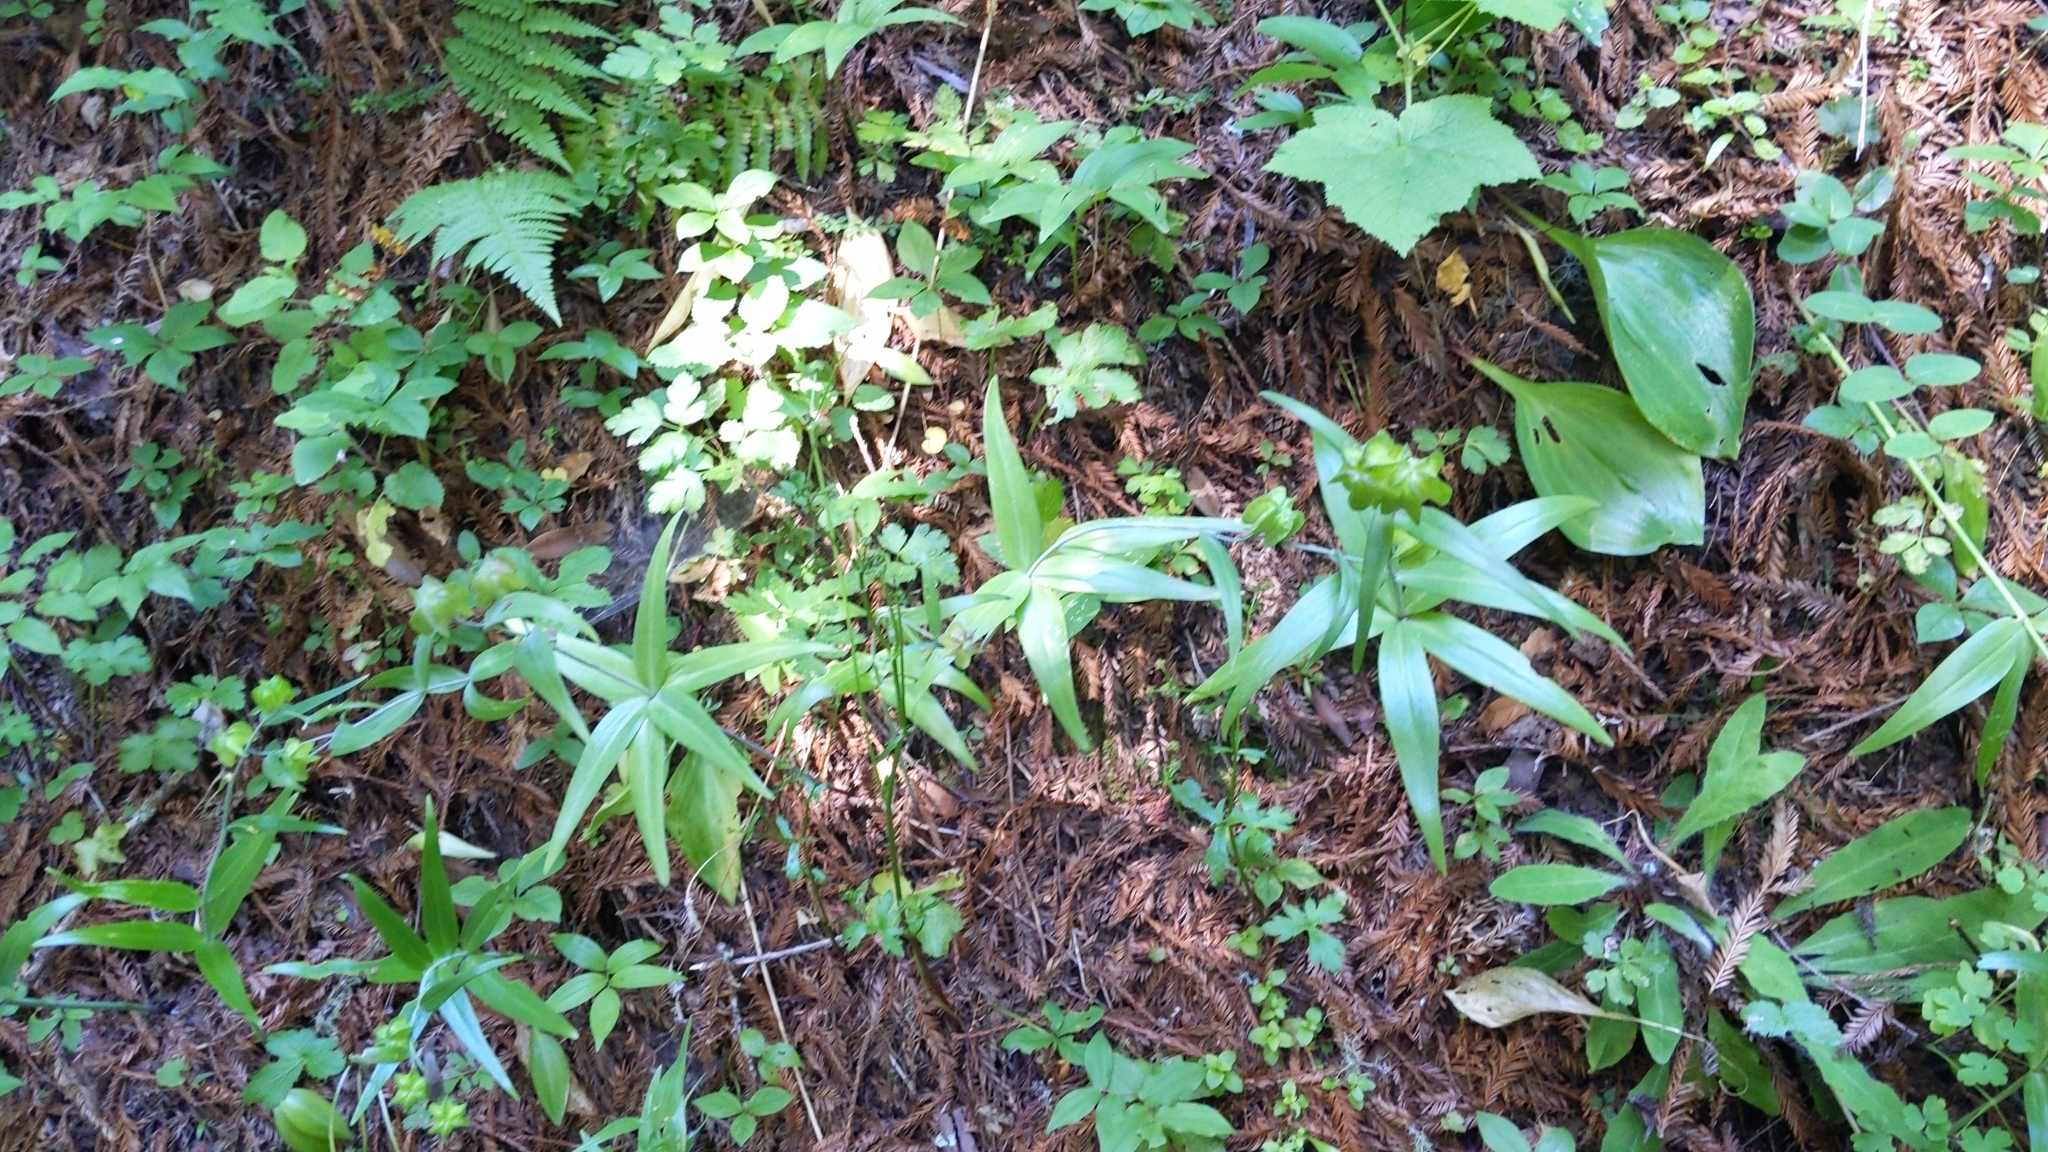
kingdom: Plantae
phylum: Tracheophyta
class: Liliopsida
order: Liliales
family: Liliaceae
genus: Fritillaria
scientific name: Fritillaria affinis
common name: Ojai fritillary
